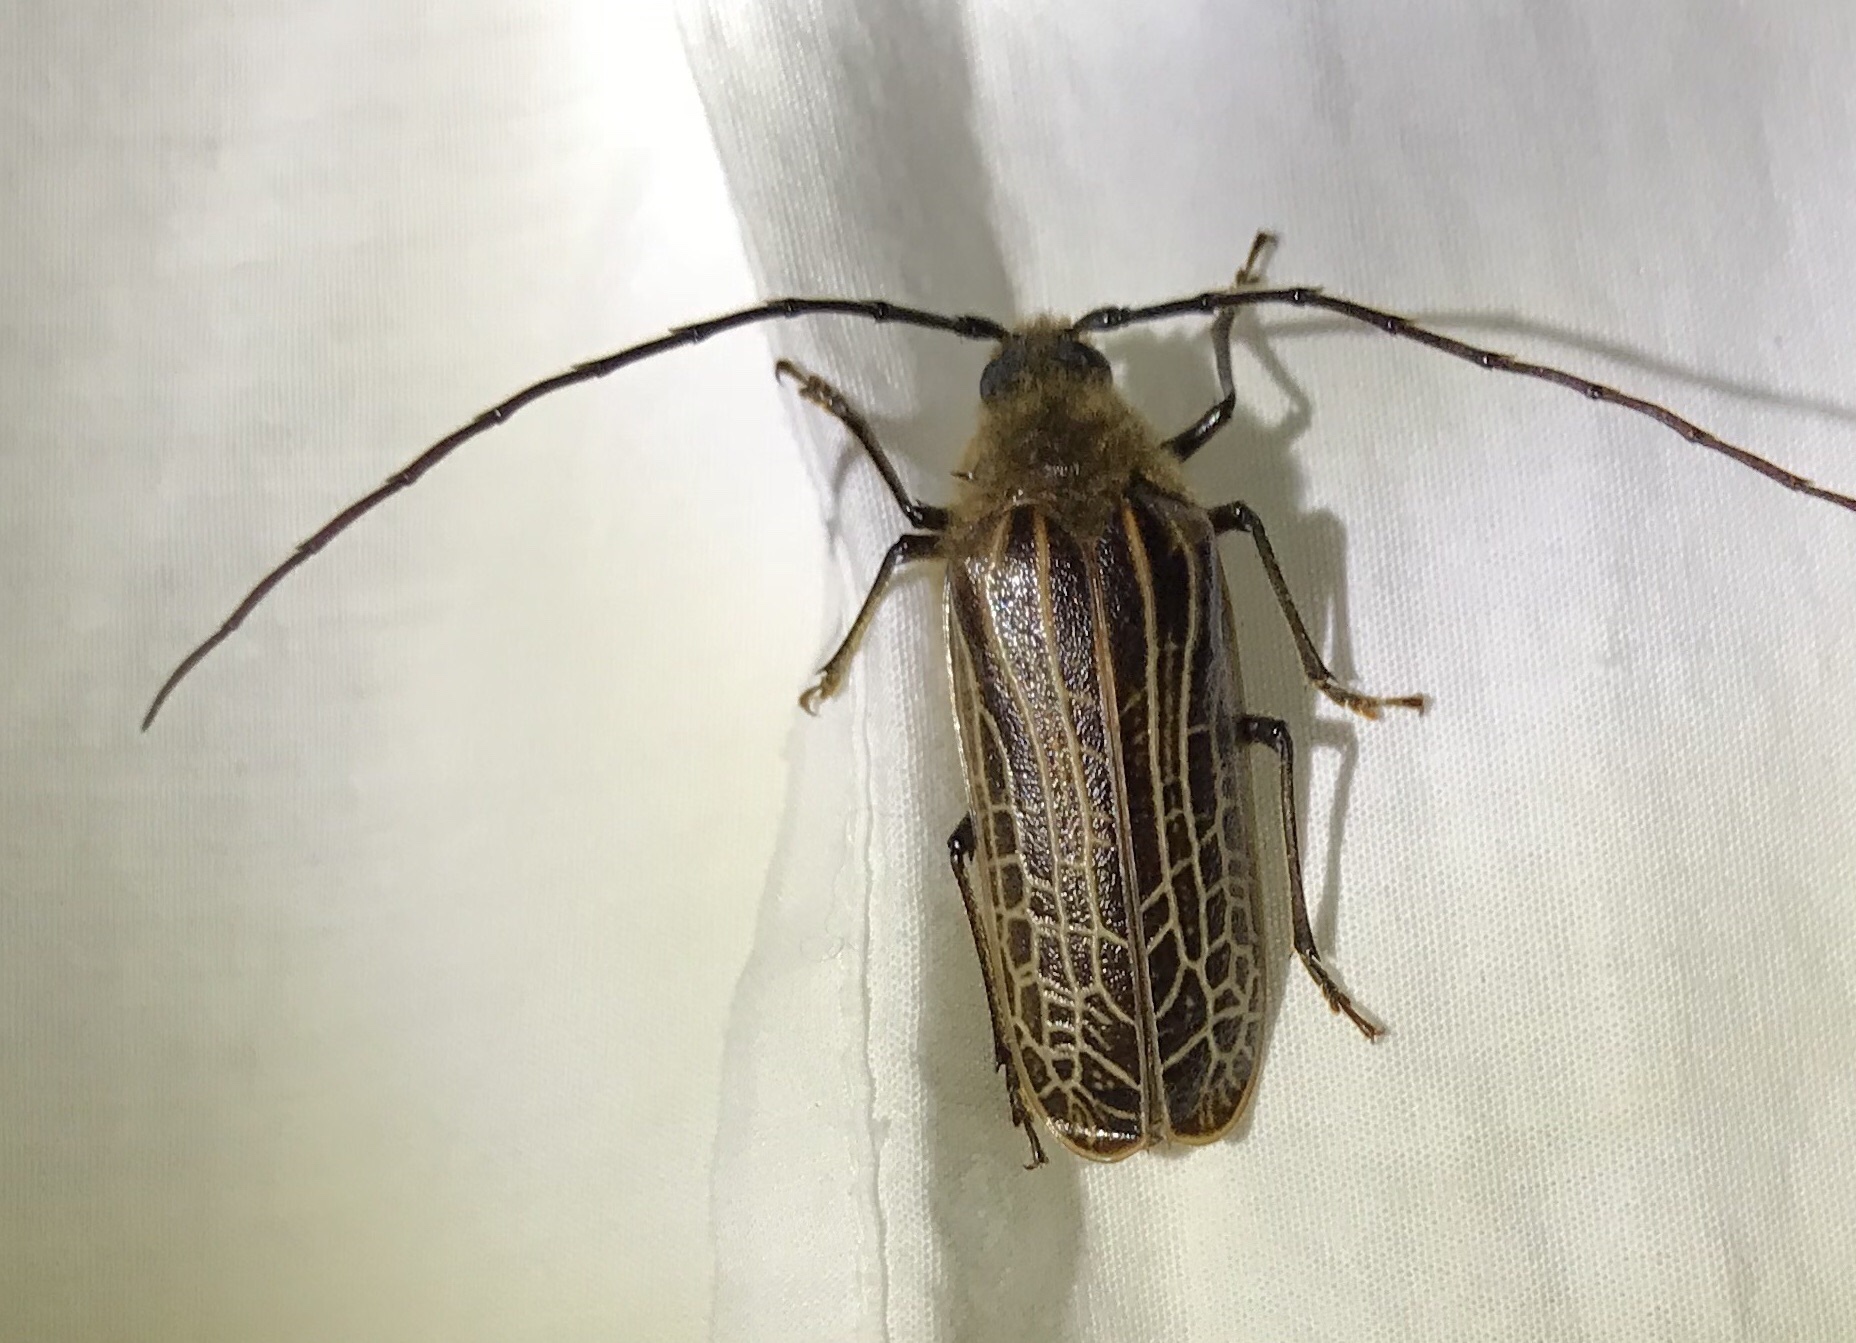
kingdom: Animalia
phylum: Arthropoda
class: Insecta
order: Coleoptera
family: Cerambycidae
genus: Prionoplus
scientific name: Prionoplus reticularis
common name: Huhu beetle
